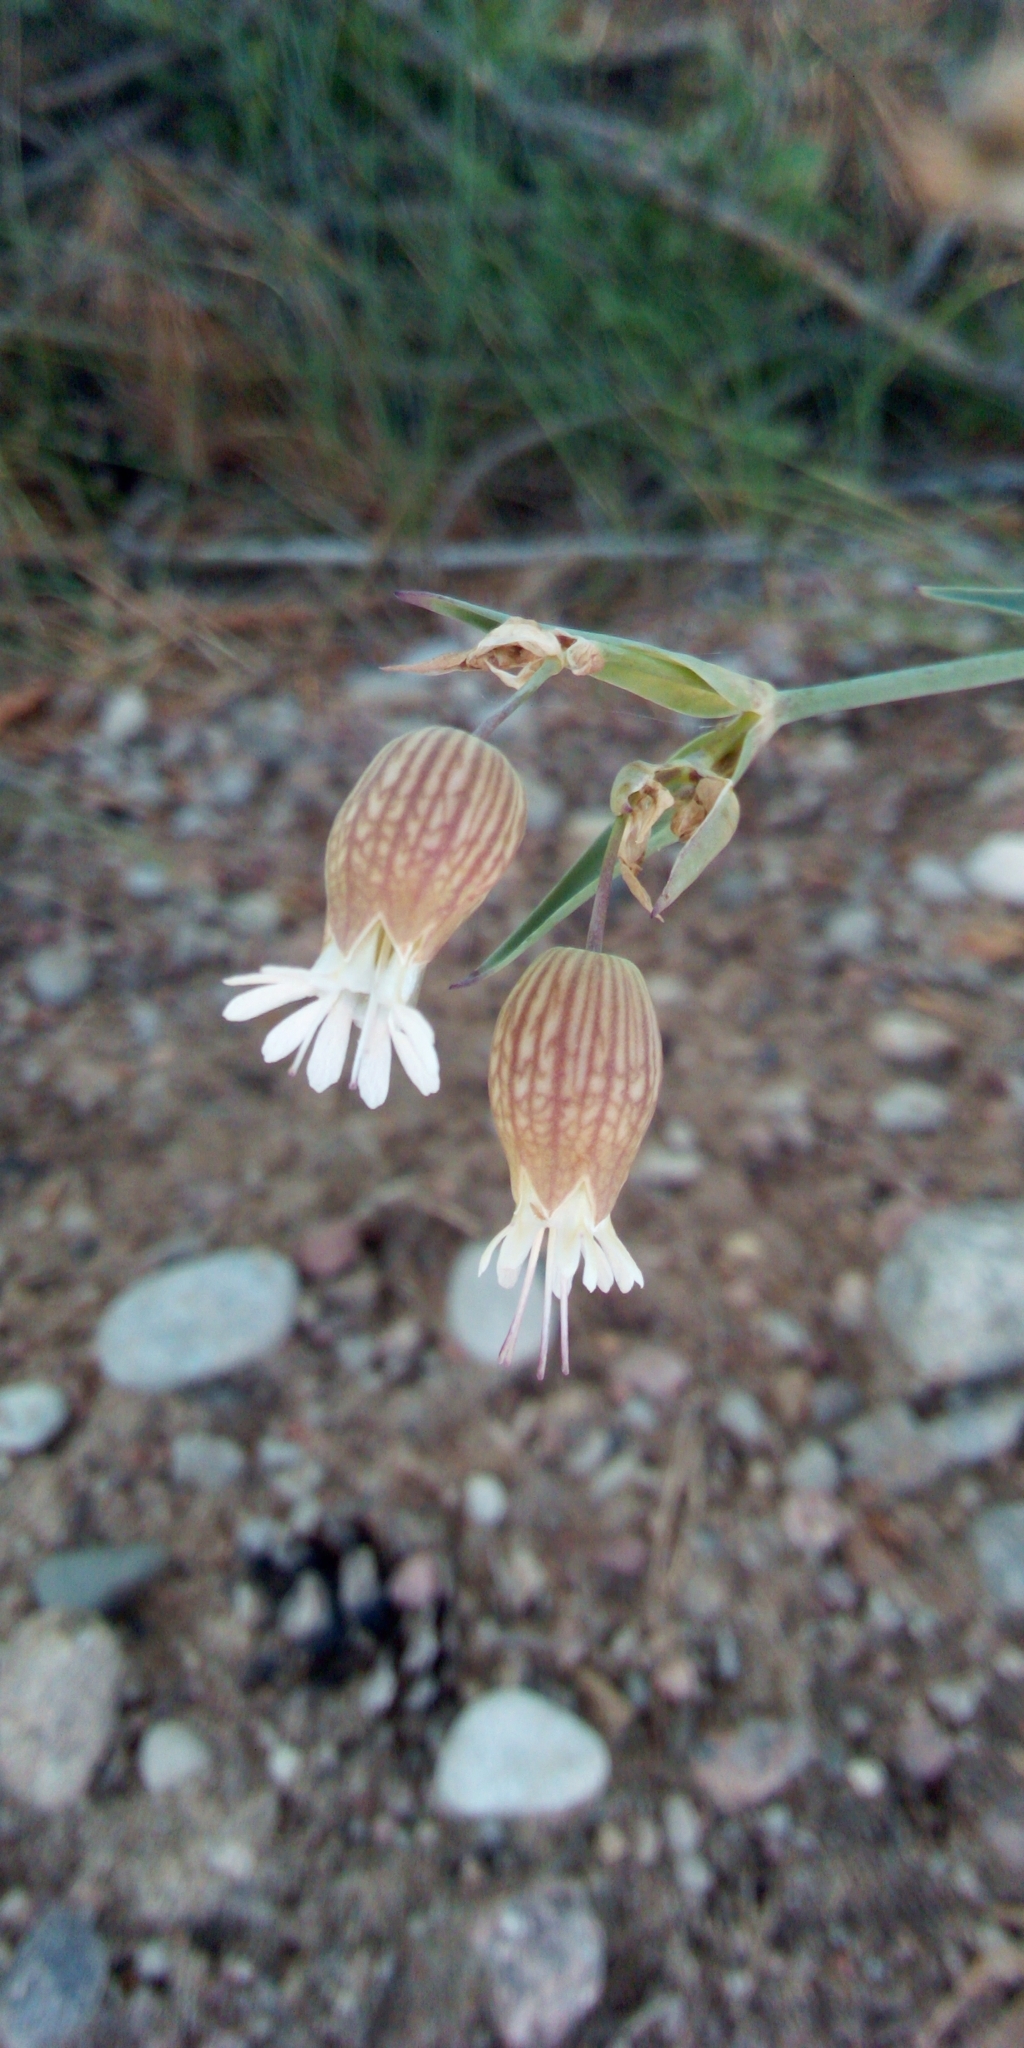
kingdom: Plantae
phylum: Tracheophyta
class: Magnoliopsida
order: Caryophyllales
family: Caryophyllaceae
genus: Silene
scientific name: Silene vulgaris
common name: Bladder campion
